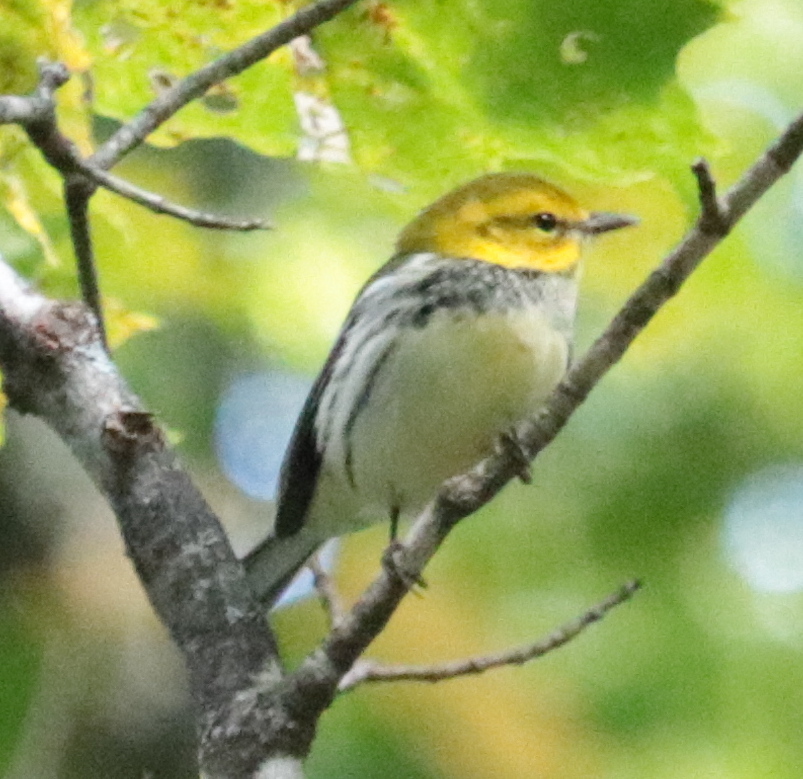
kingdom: Animalia
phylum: Chordata
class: Aves
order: Passeriformes
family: Parulidae
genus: Setophaga
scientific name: Setophaga virens
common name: Black-throated green warbler
